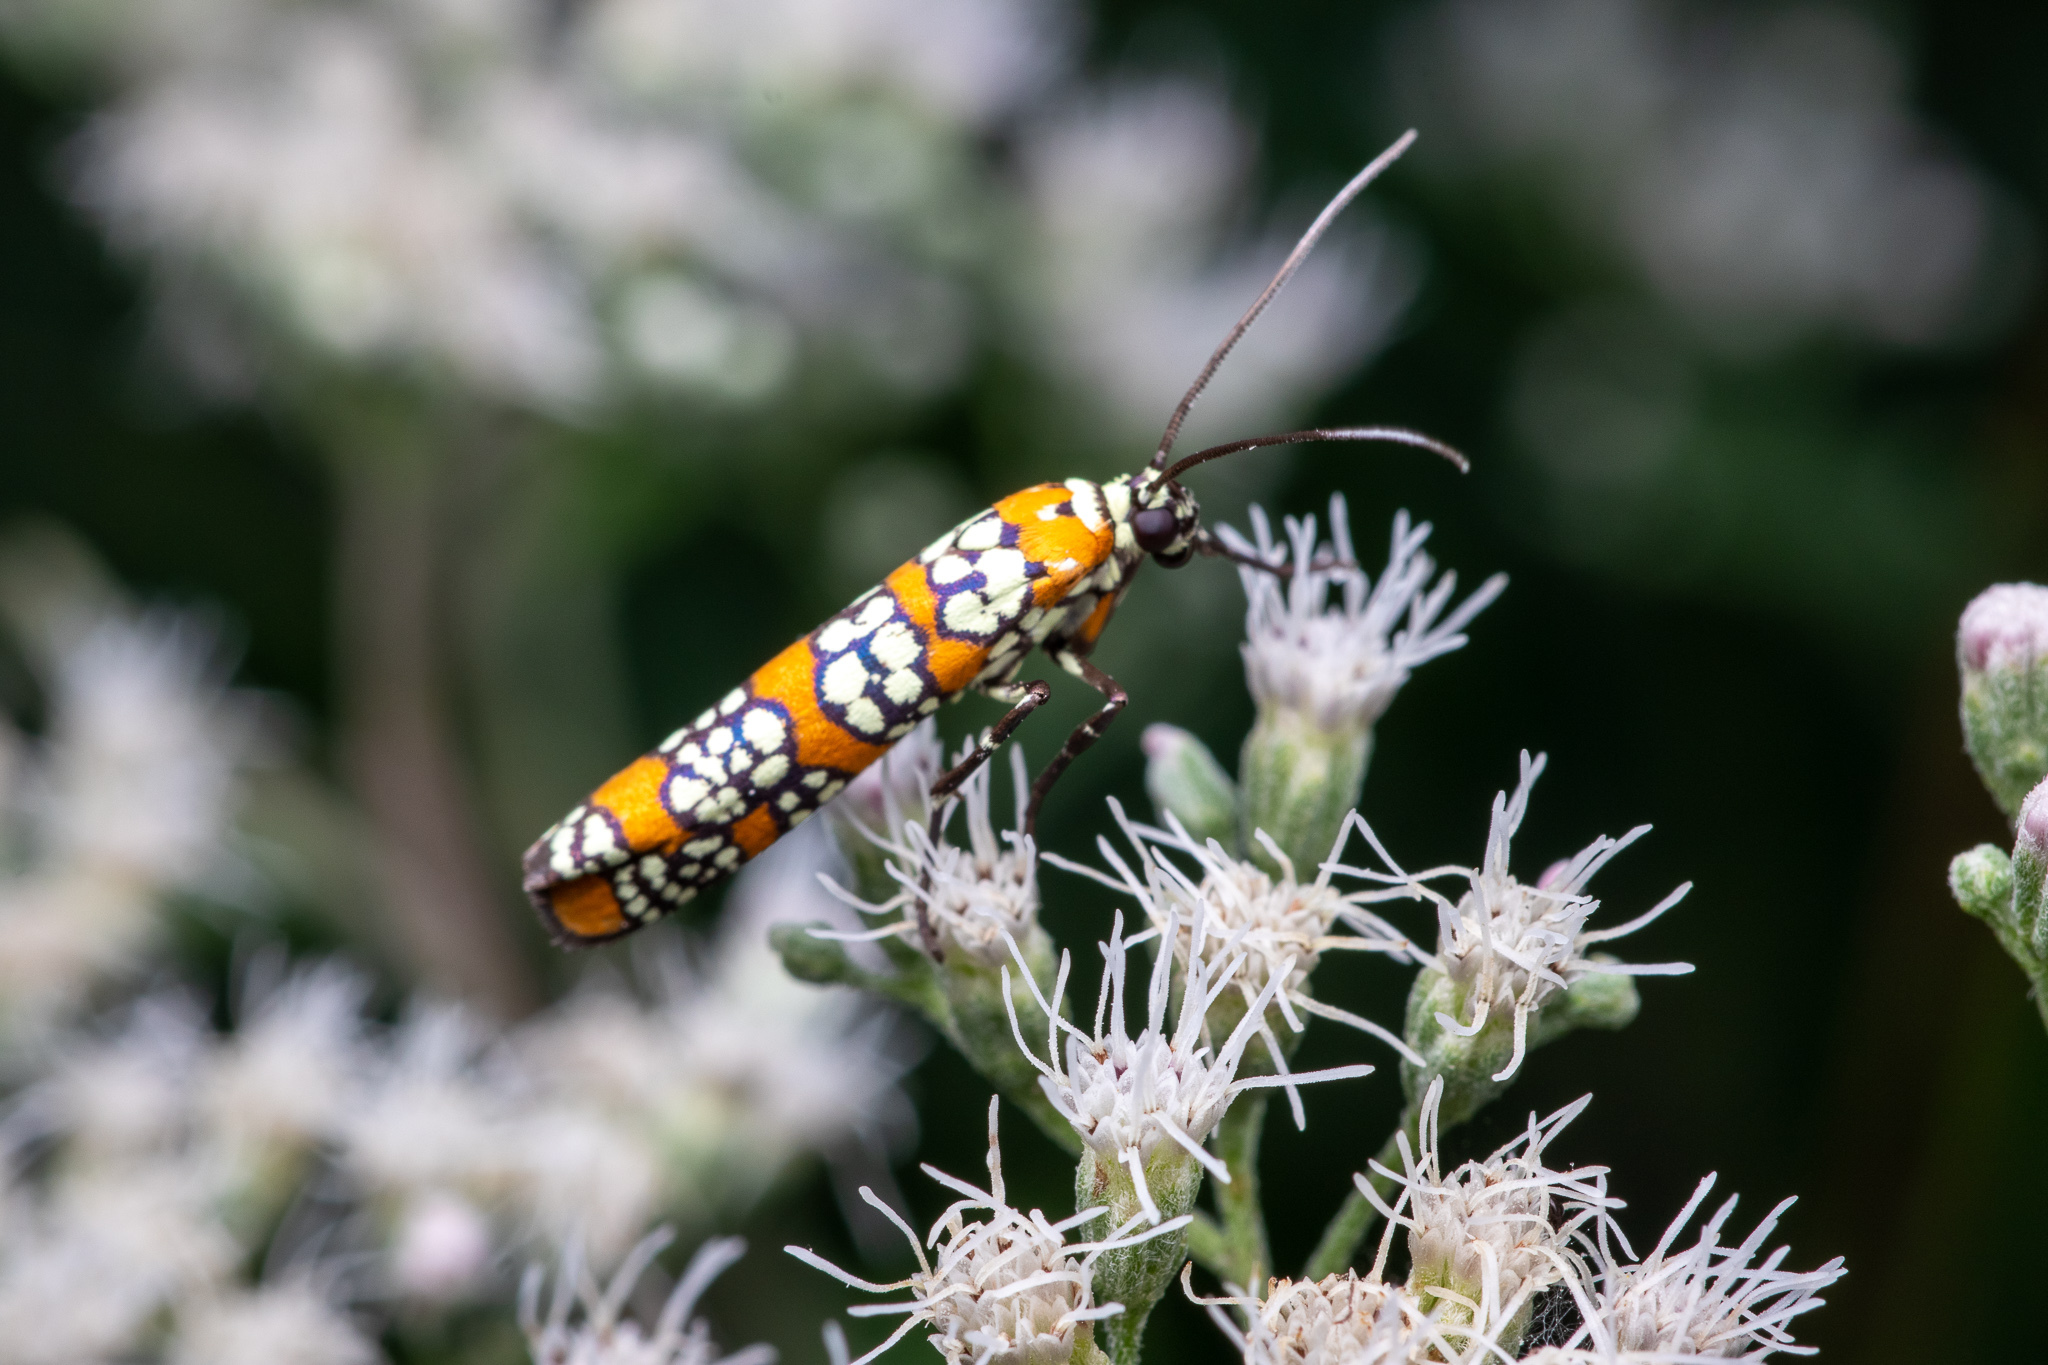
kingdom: Animalia
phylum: Arthropoda
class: Insecta
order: Lepidoptera
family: Attevidae
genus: Atteva
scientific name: Atteva punctella
